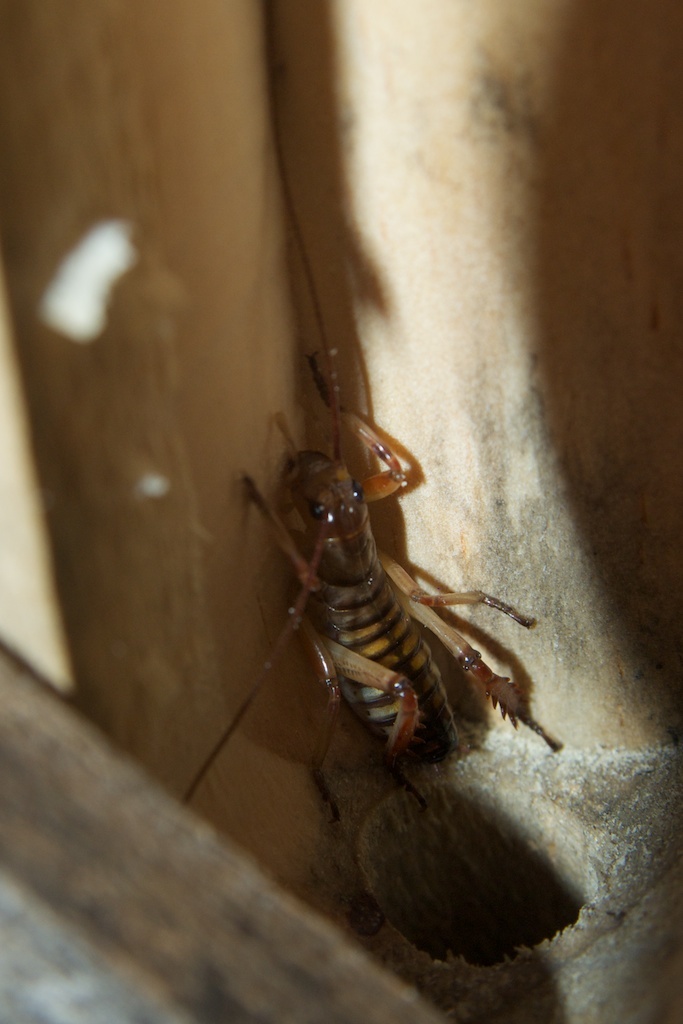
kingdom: Animalia
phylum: Arthropoda
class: Insecta
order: Orthoptera
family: Anostostomatidae
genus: Hemideina
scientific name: Hemideina crassidens
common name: Wellington tree weta
